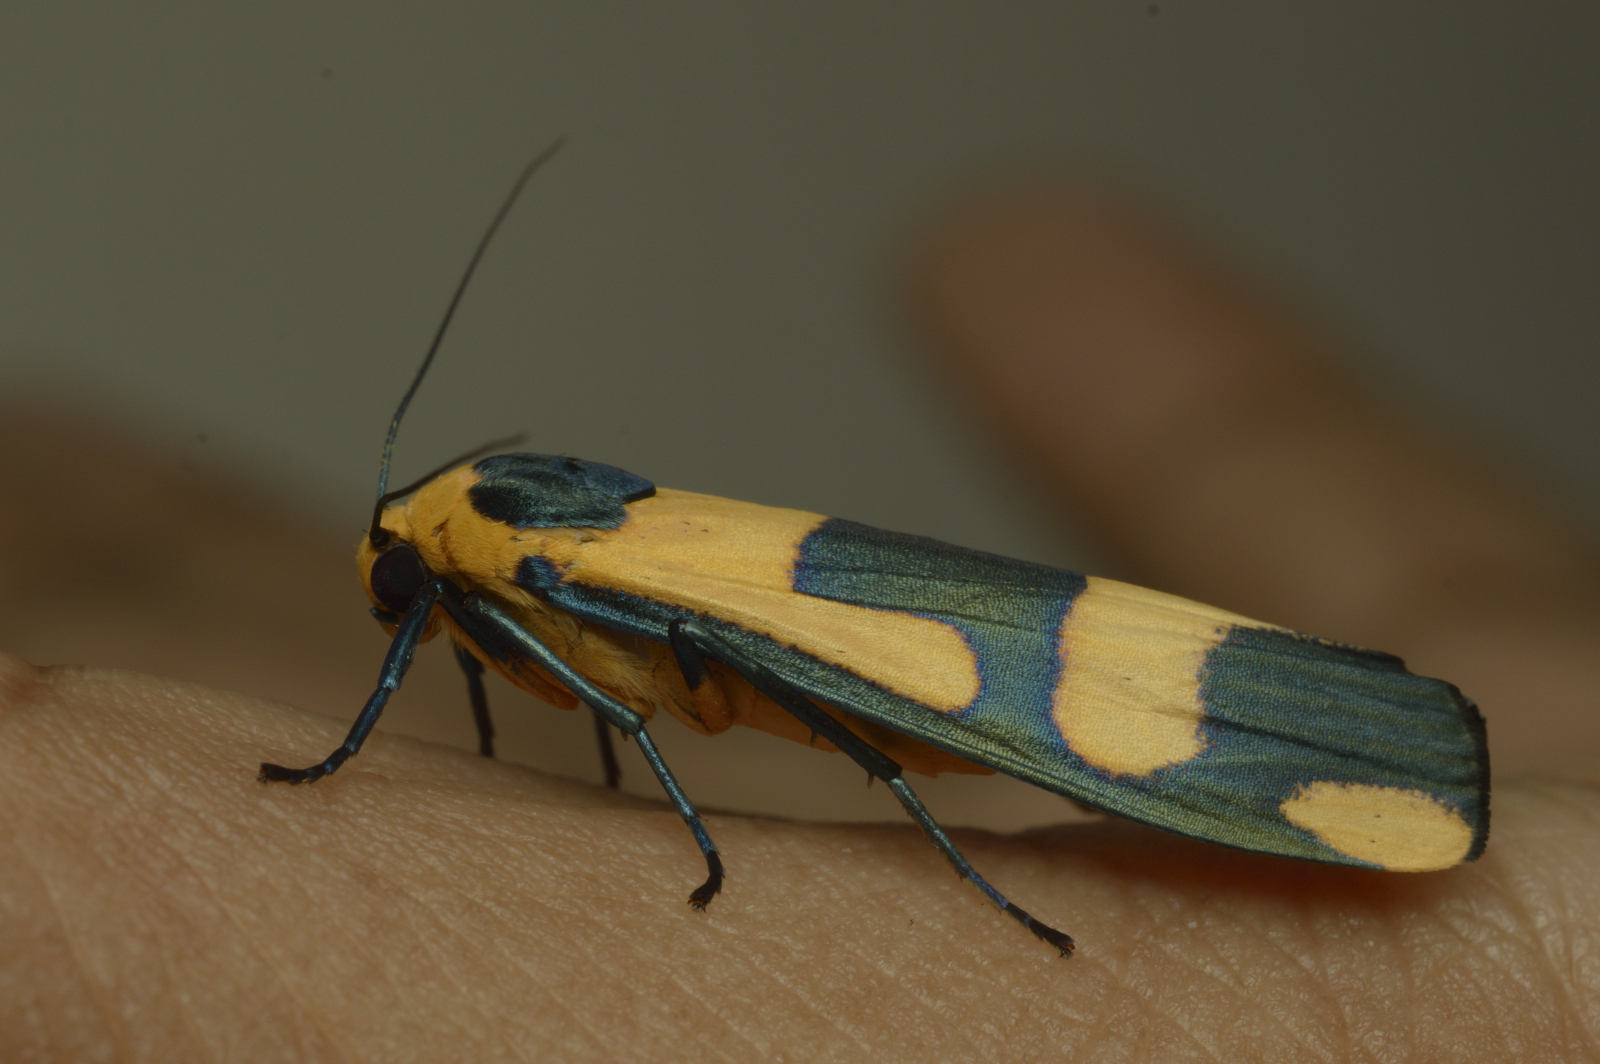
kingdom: Animalia
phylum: Arthropoda
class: Insecta
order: Lepidoptera
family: Erebidae
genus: Oeonistis
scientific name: Oeonistis entella
